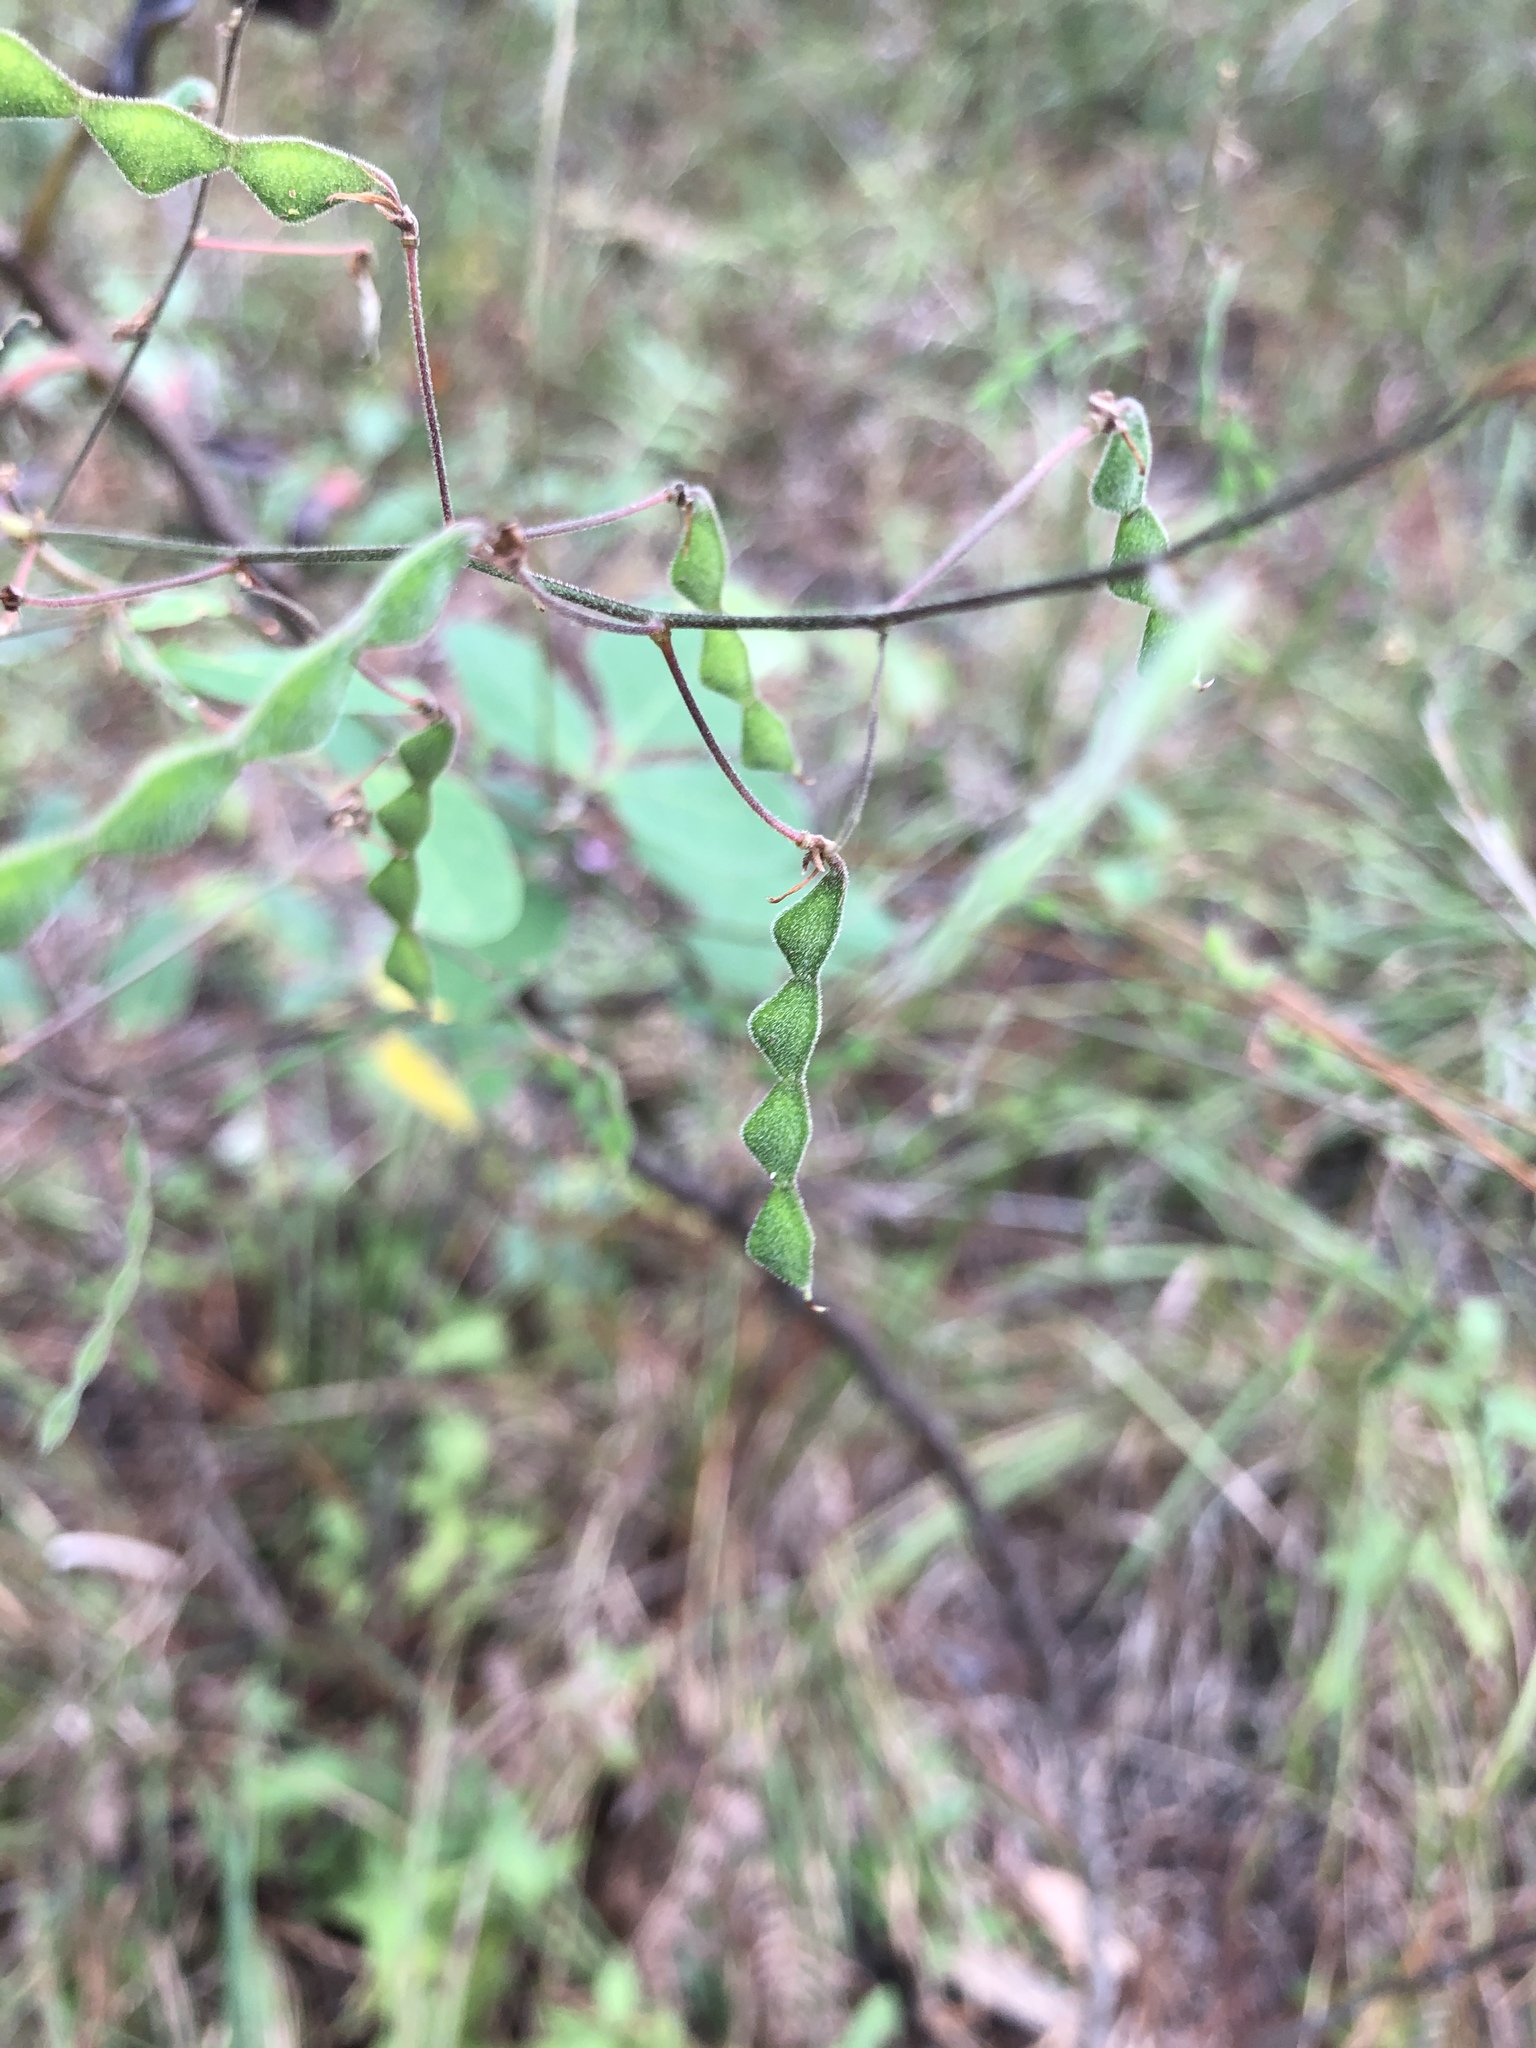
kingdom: Plantae
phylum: Tracheophyta
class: Magnoliopsida
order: Fabales
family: Fabaceae
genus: Desmodium
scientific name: Desmodium perplexum
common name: Perplexed tick trefoil
